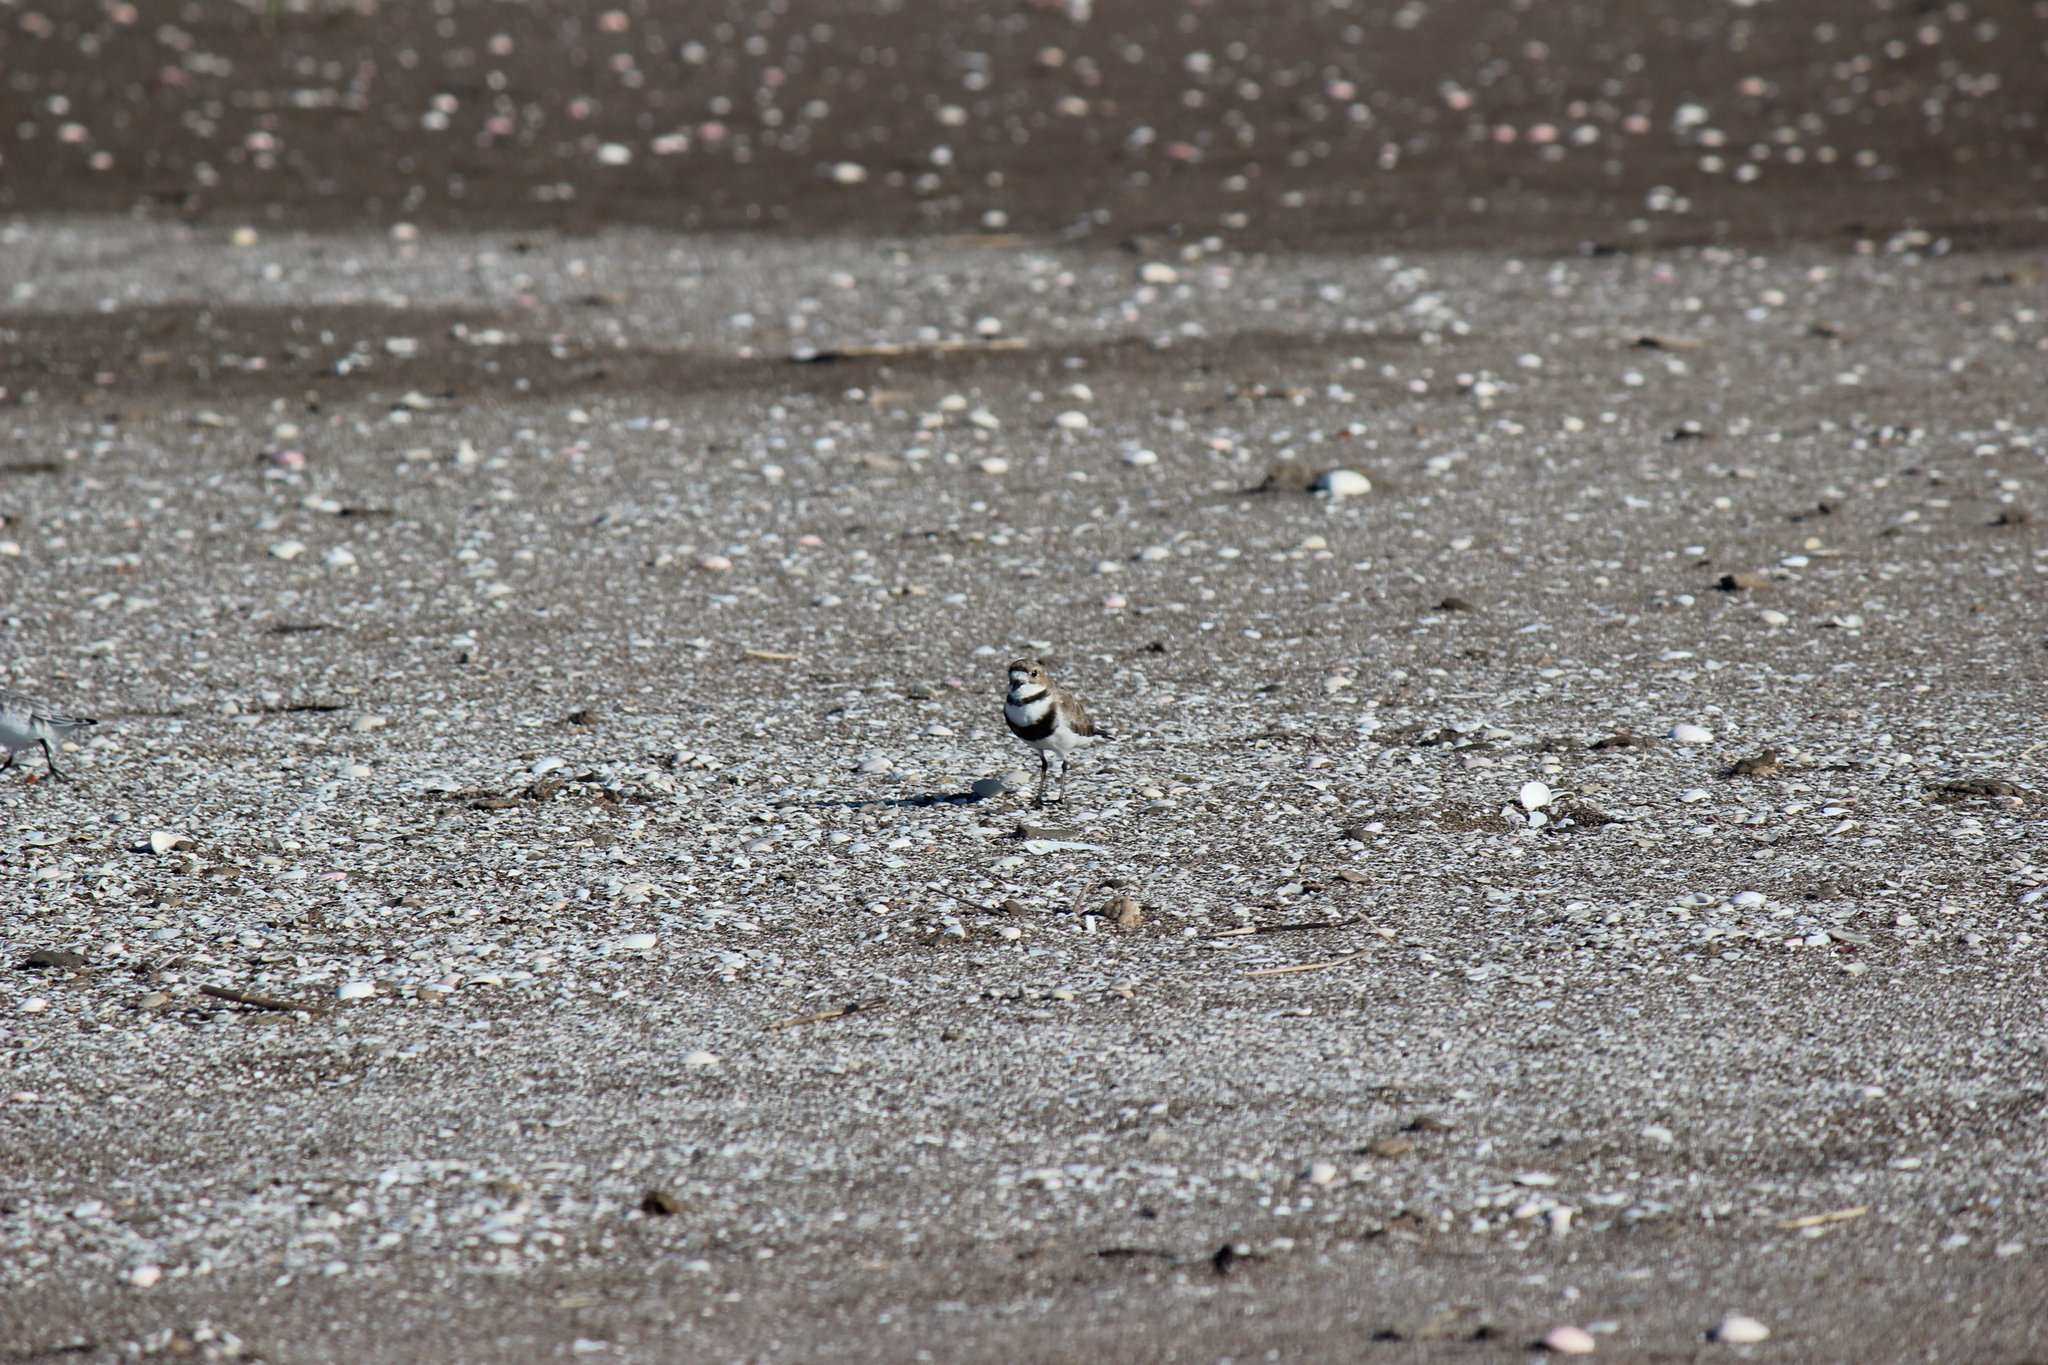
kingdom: Animalia
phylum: Chordata
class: Aves
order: Charadriiformes
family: Charadriidae
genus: Anarhynchus
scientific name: Anarhynchus
